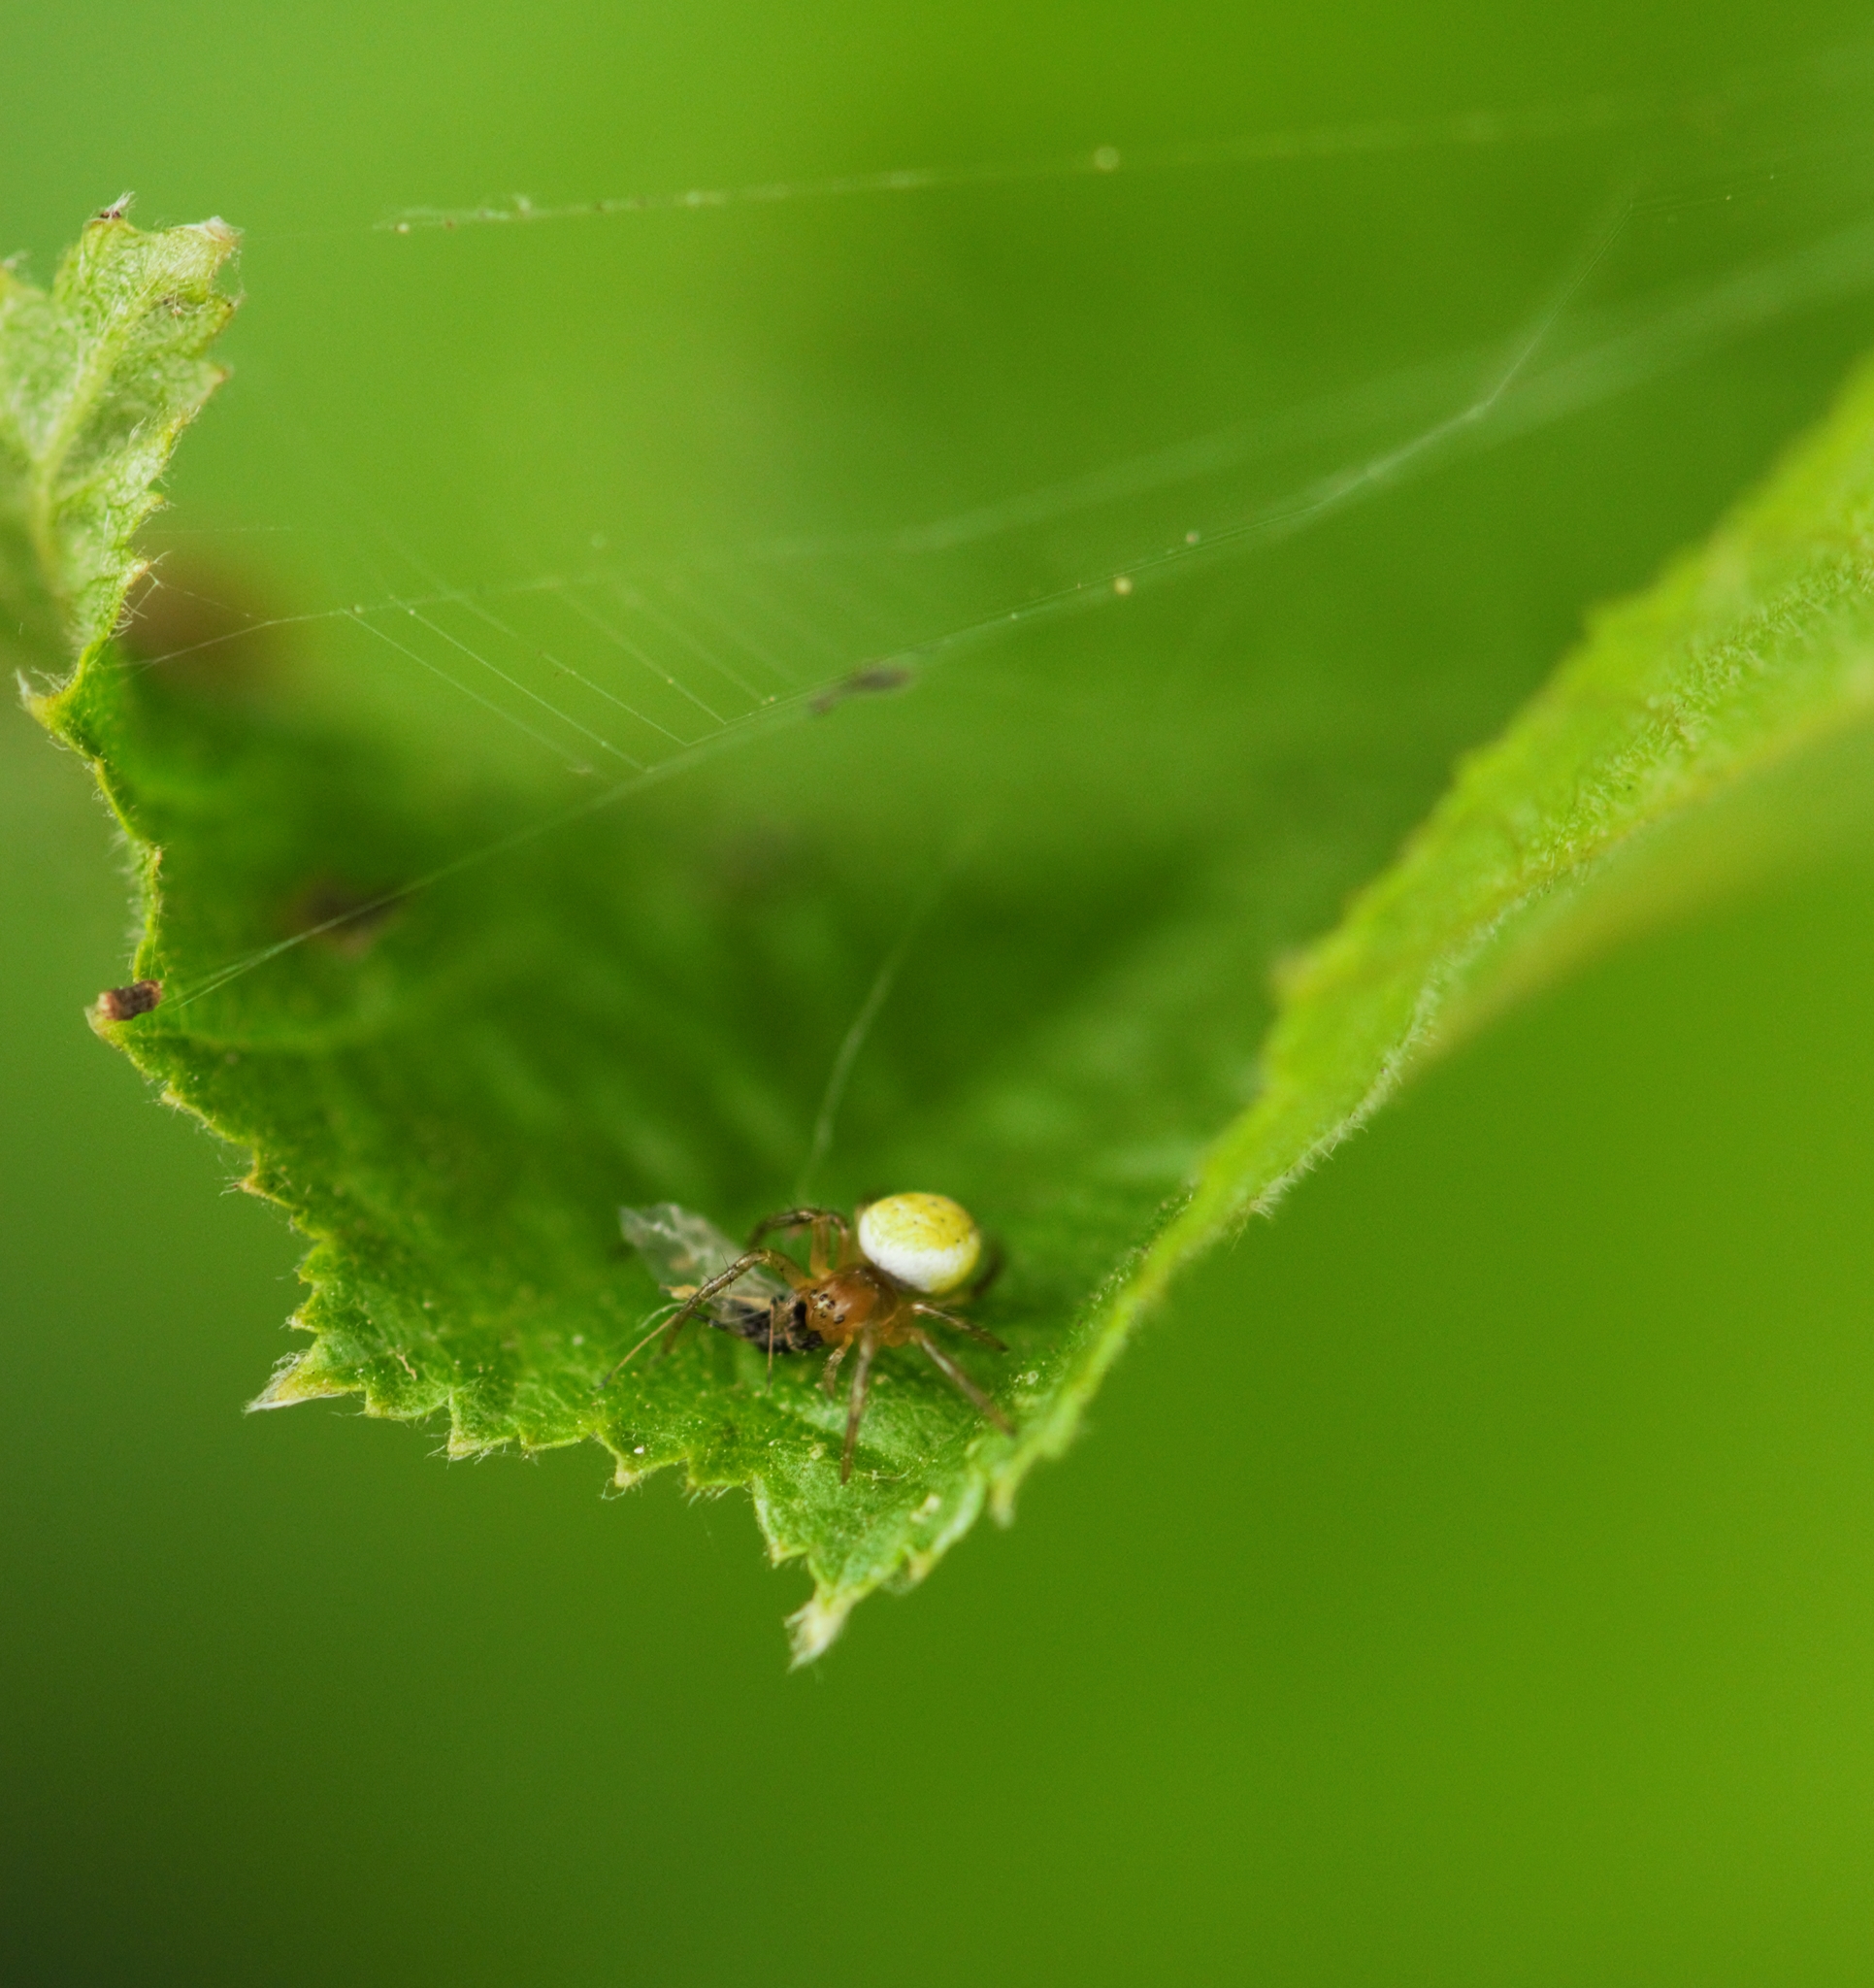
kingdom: Animalia
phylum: Arthropoda
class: Arachnida
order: Araneae
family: Araneidae
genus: Araniella
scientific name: Araniella
